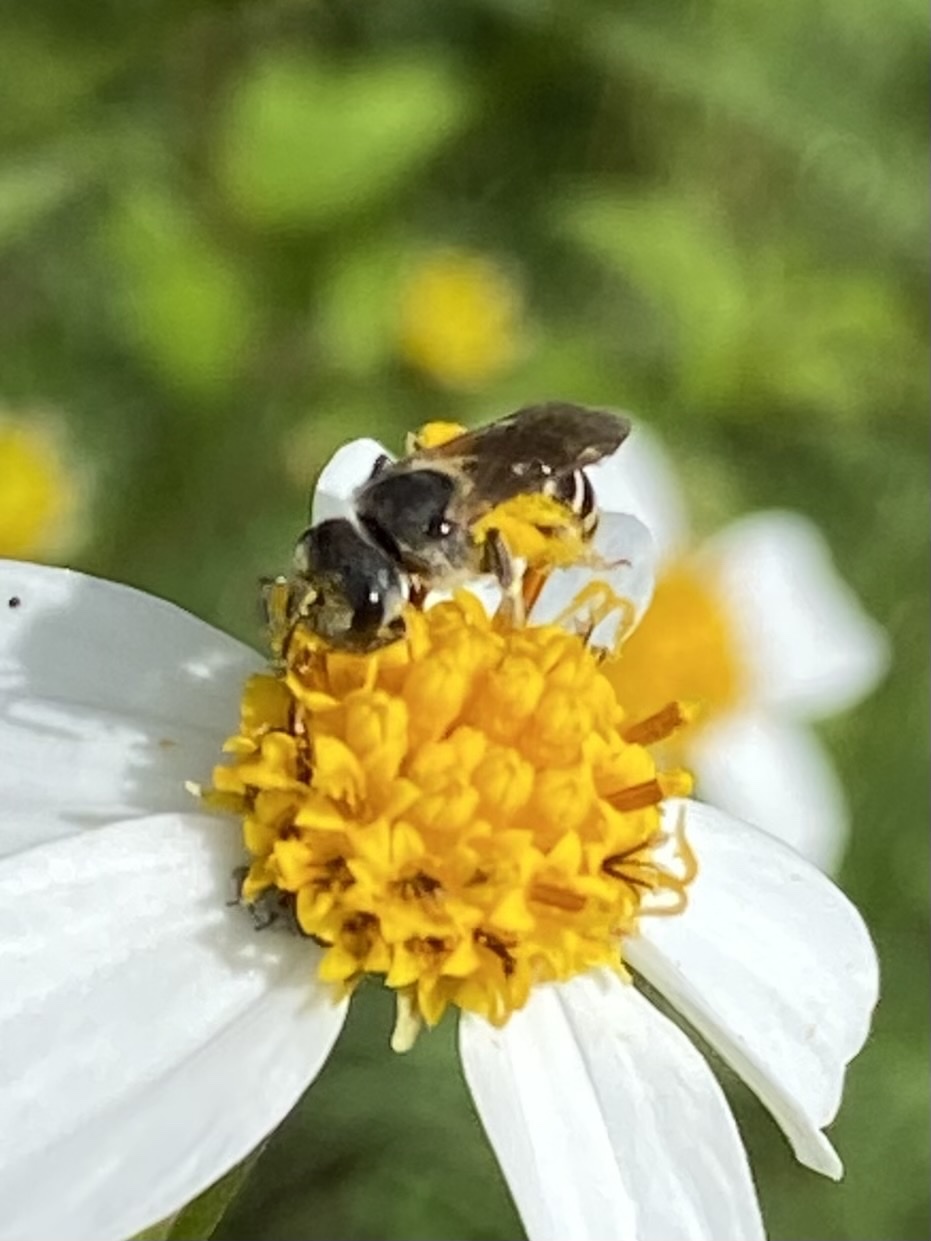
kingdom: Animalia
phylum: Arthropoda
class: Insecta
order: Hymenoptera
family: Halictidae
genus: Halictus
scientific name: Halictus ligatus
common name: Ligated furrow bee
